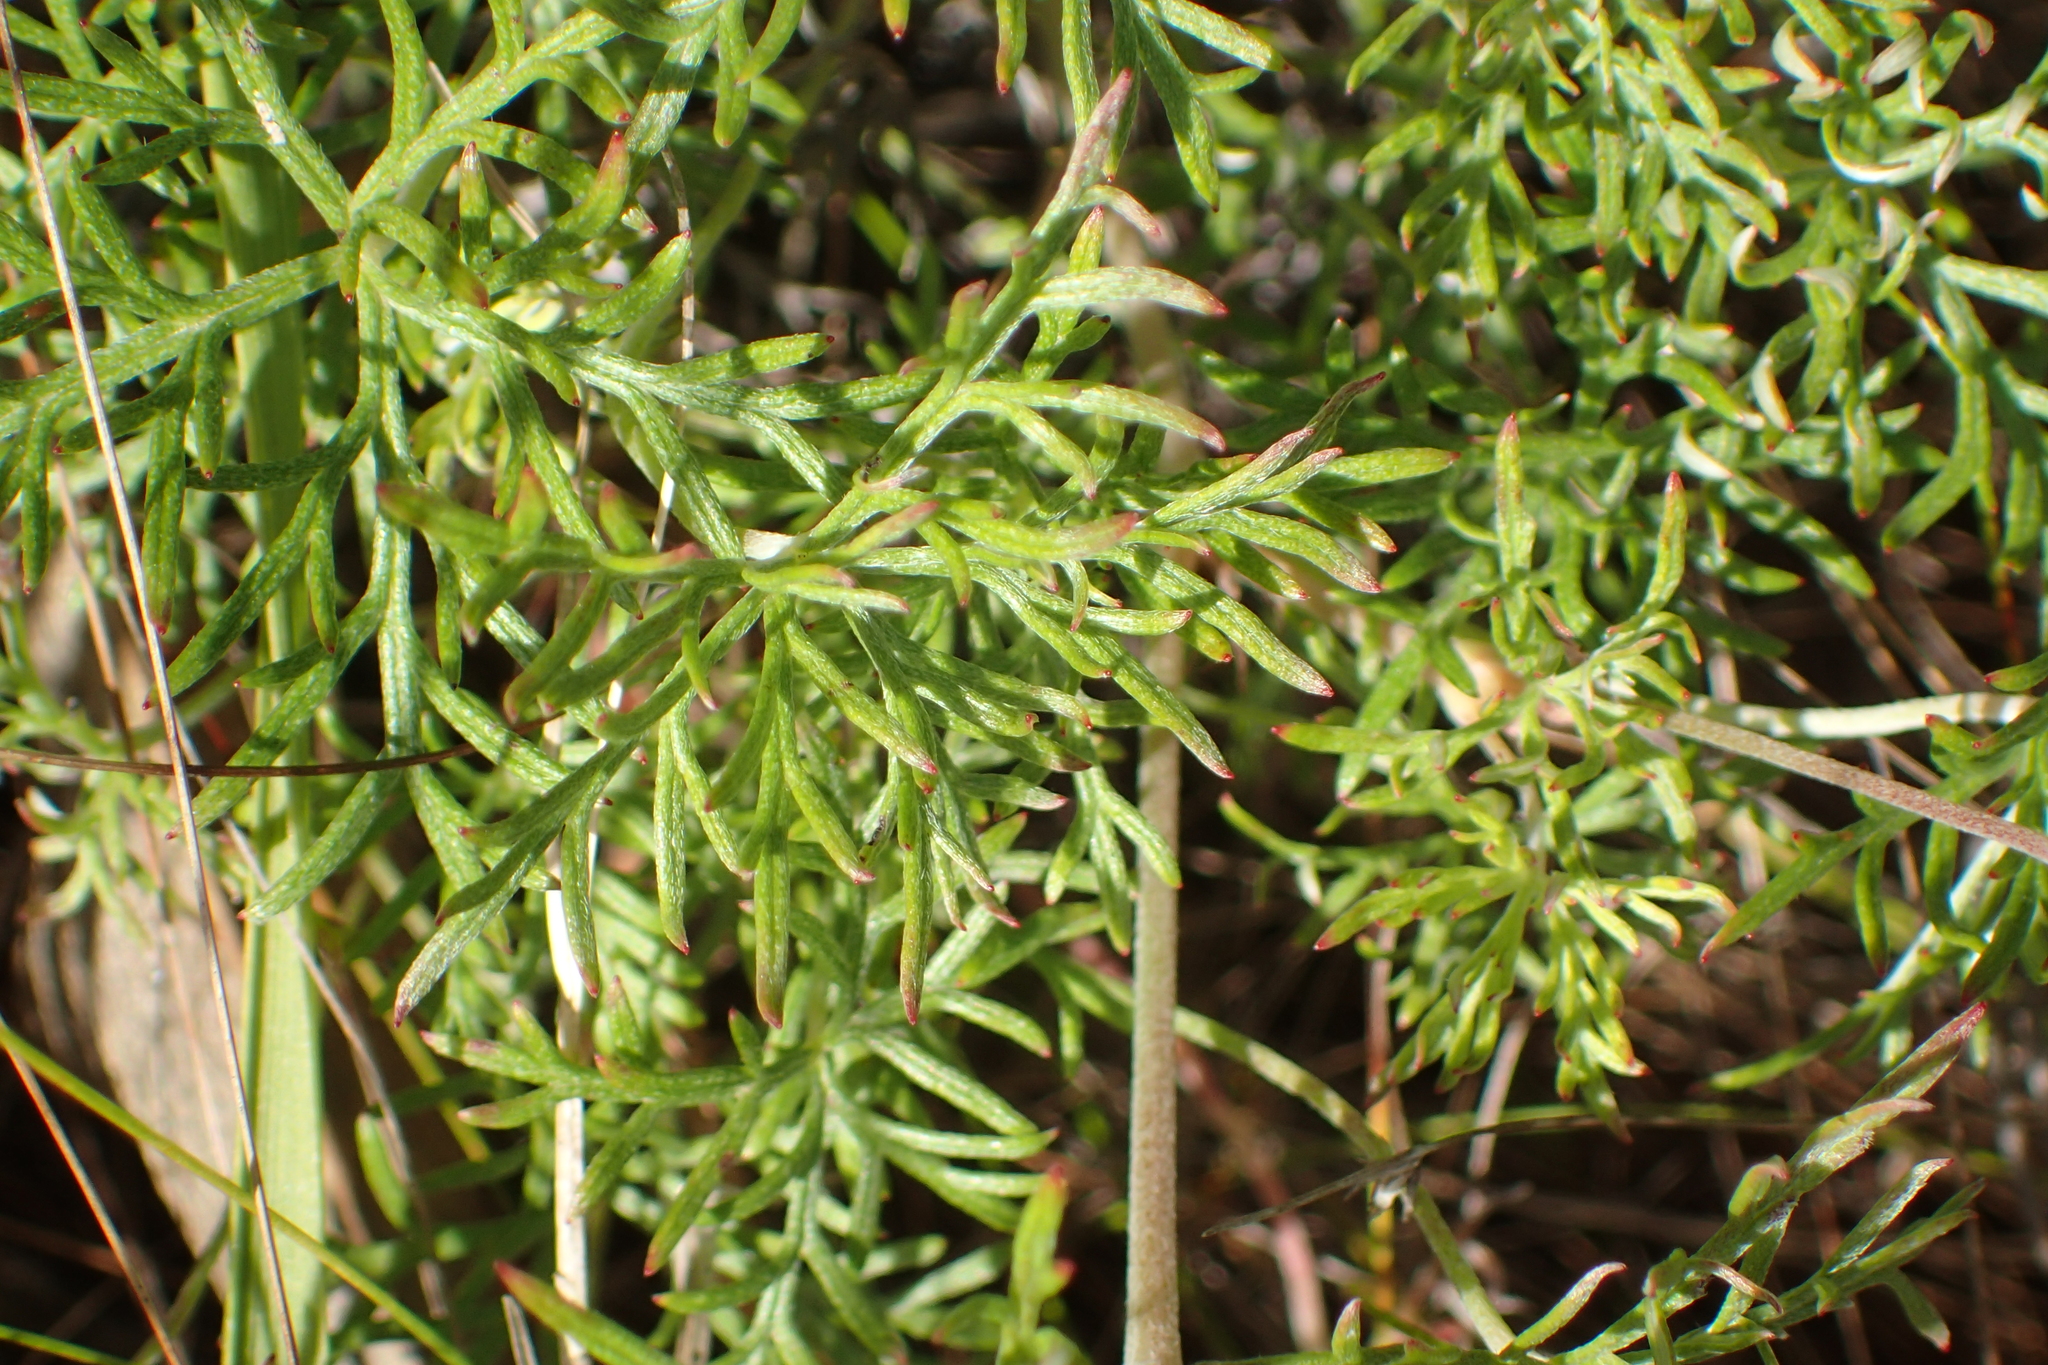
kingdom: Plantae
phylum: Tracheophyta
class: Magnoliopsida
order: Geraniales
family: Geraniaceae
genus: Geranium
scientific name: Geranium incanum
